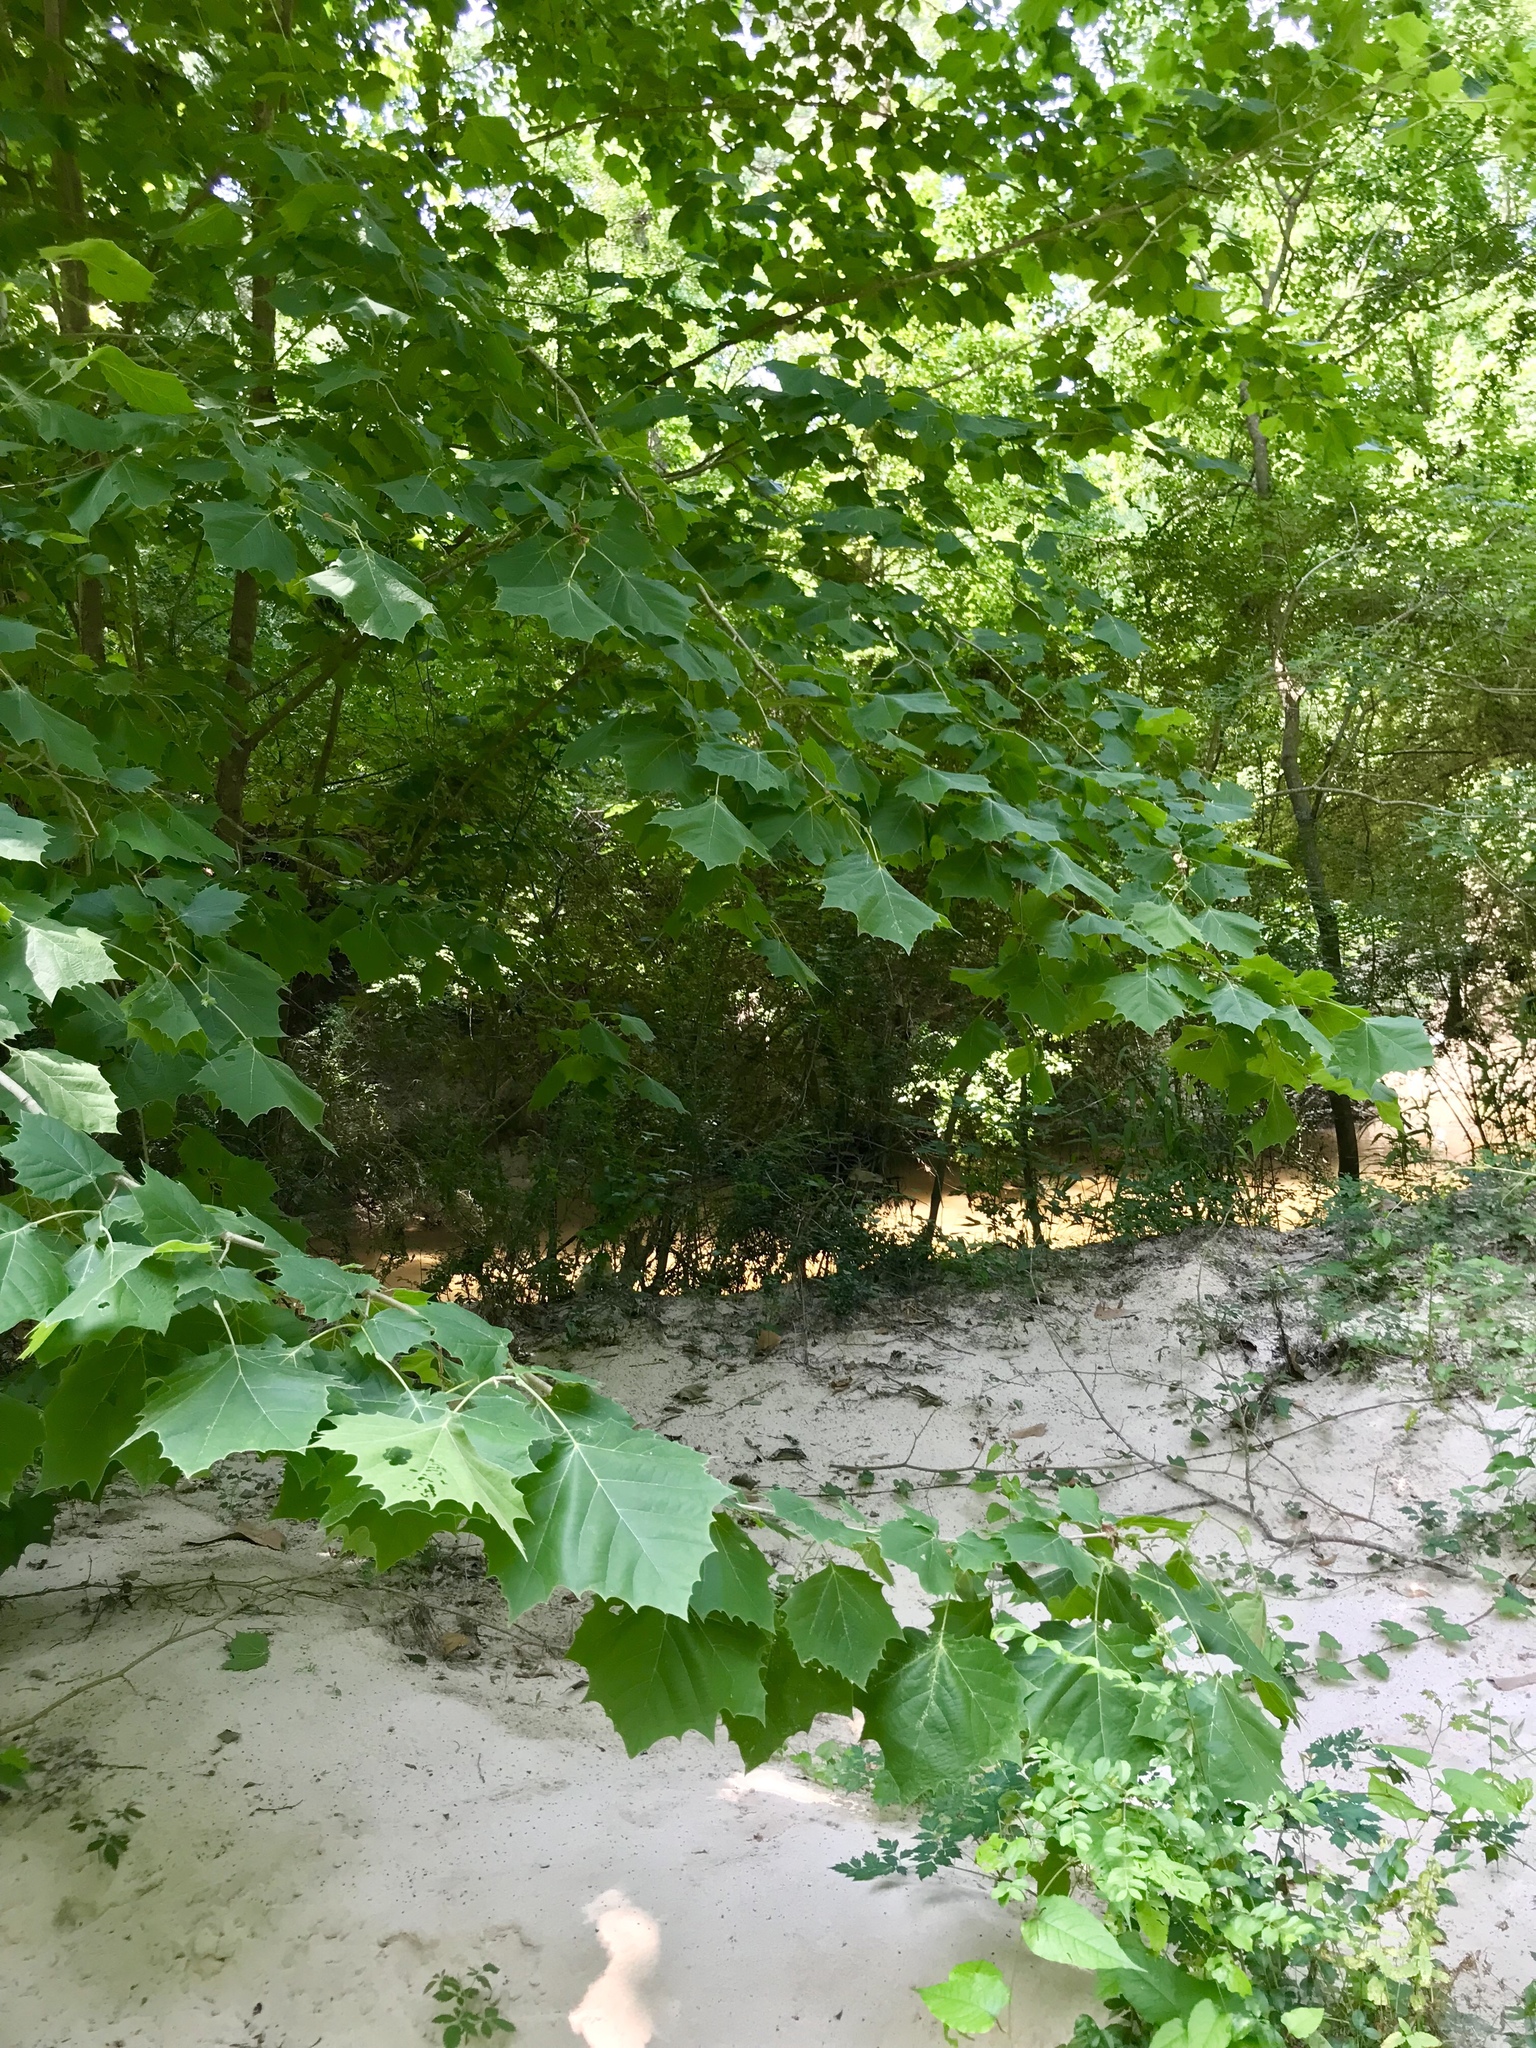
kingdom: Plantae
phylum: Tracheophyta
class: Magnoliopsida
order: Proteales
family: Platanaceae
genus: Platanus
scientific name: Platanus occidentalis
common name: American sycamore
